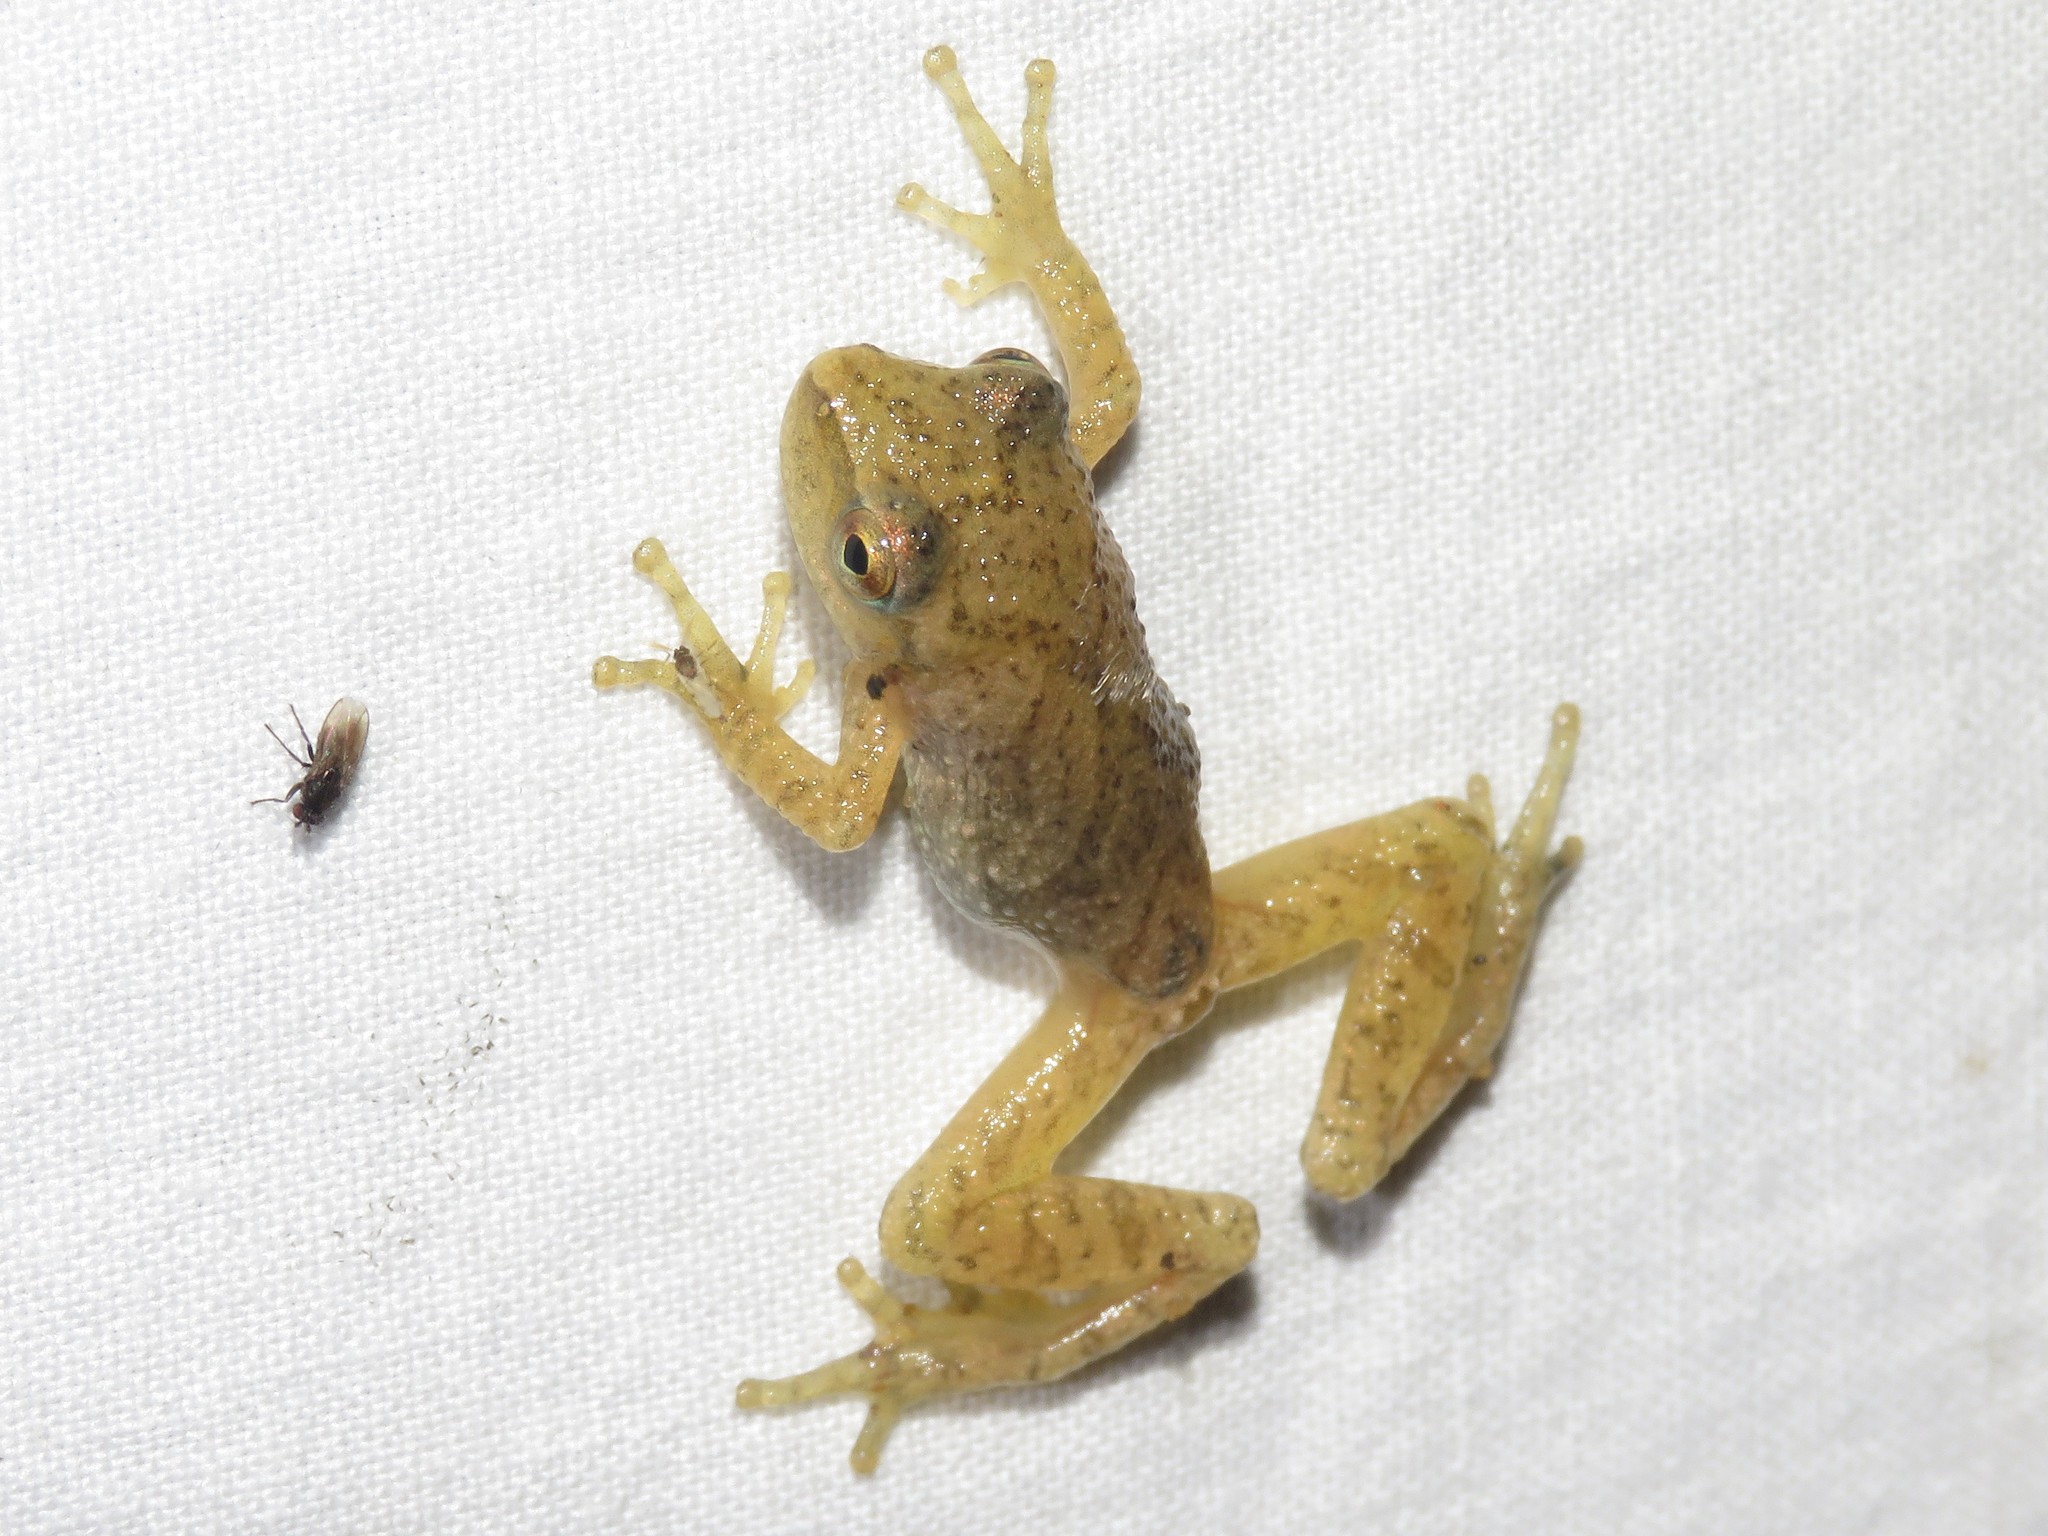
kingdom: Animalia
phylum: Chordata
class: Amphibia
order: Anura
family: Hylidae
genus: Pseudacris
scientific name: Pseudacris crucifer
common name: Spring peeper
